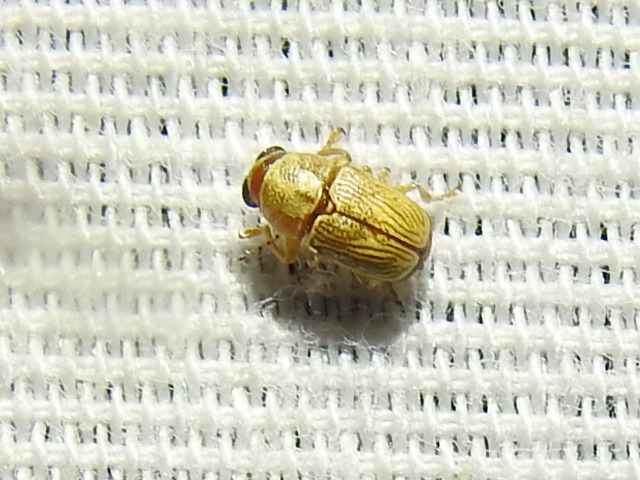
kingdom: Animalia
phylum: Arthropoda
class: Insecta
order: Coleoptera
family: Chrysomelidae
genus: Pachybrachis
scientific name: Pachybrachis pusillus
